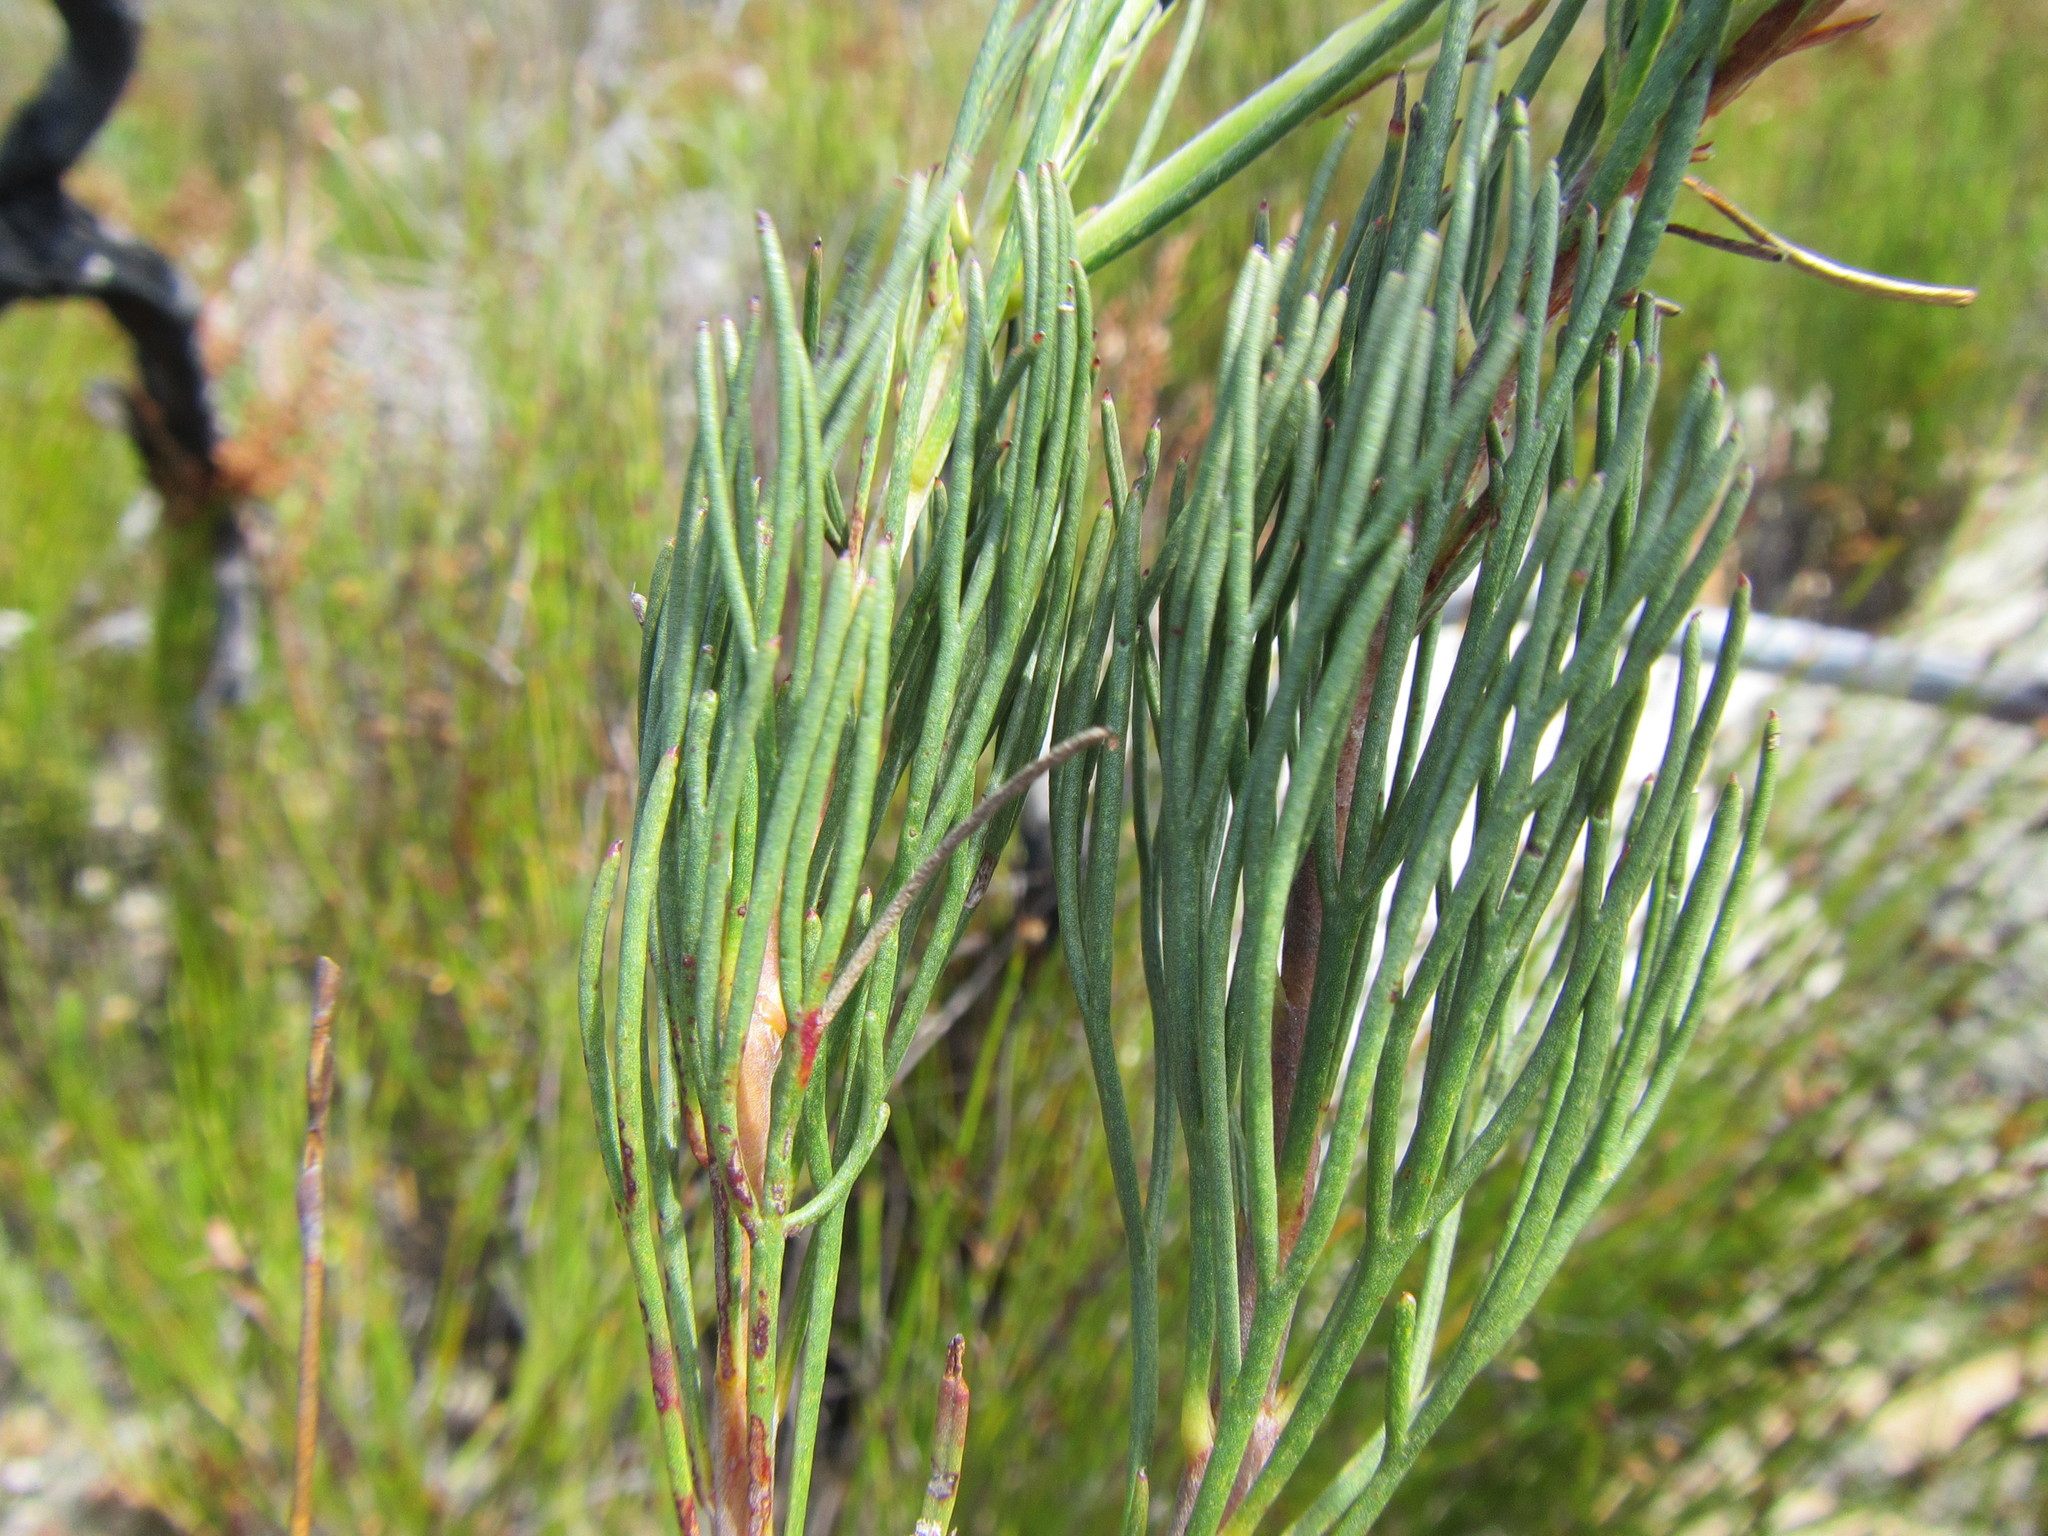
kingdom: Plantae
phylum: Tracheophyta
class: Magnoliopsida
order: Proteales
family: Proteaceae
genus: Serruria
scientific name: Serruria phylicoides
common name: Bearded spiderhead
